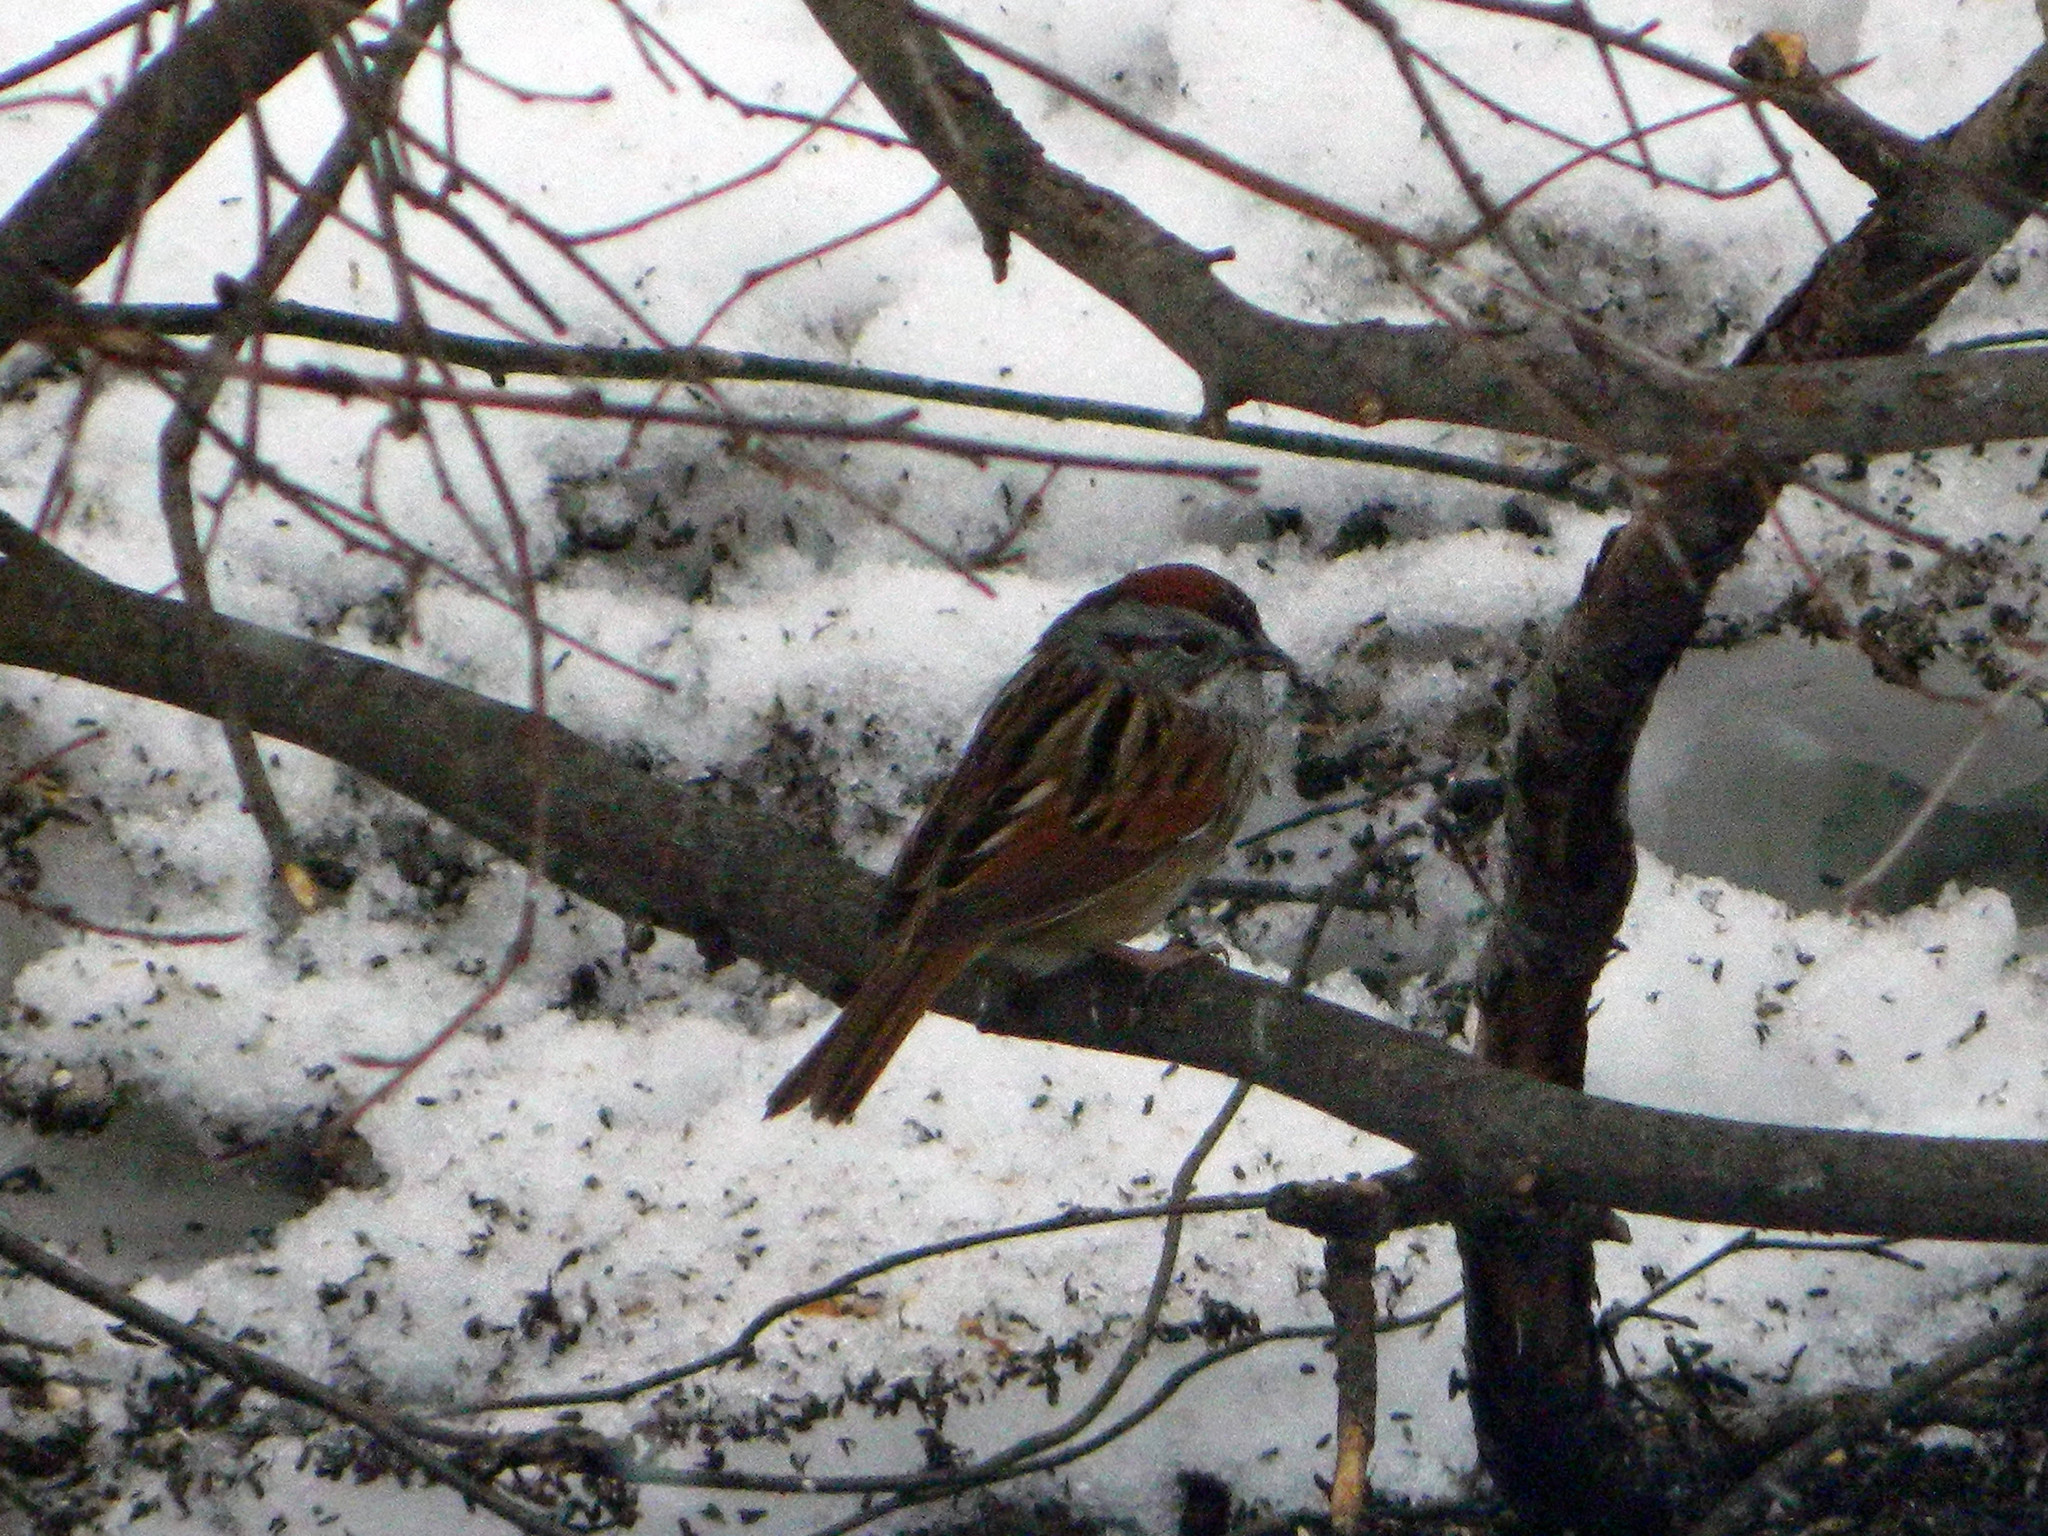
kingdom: Animalia
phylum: Chordata
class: Aves
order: Passeriformes
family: Passerellidae
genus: Melospiza
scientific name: Melospiza georgiana
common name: Swamp sparrow
